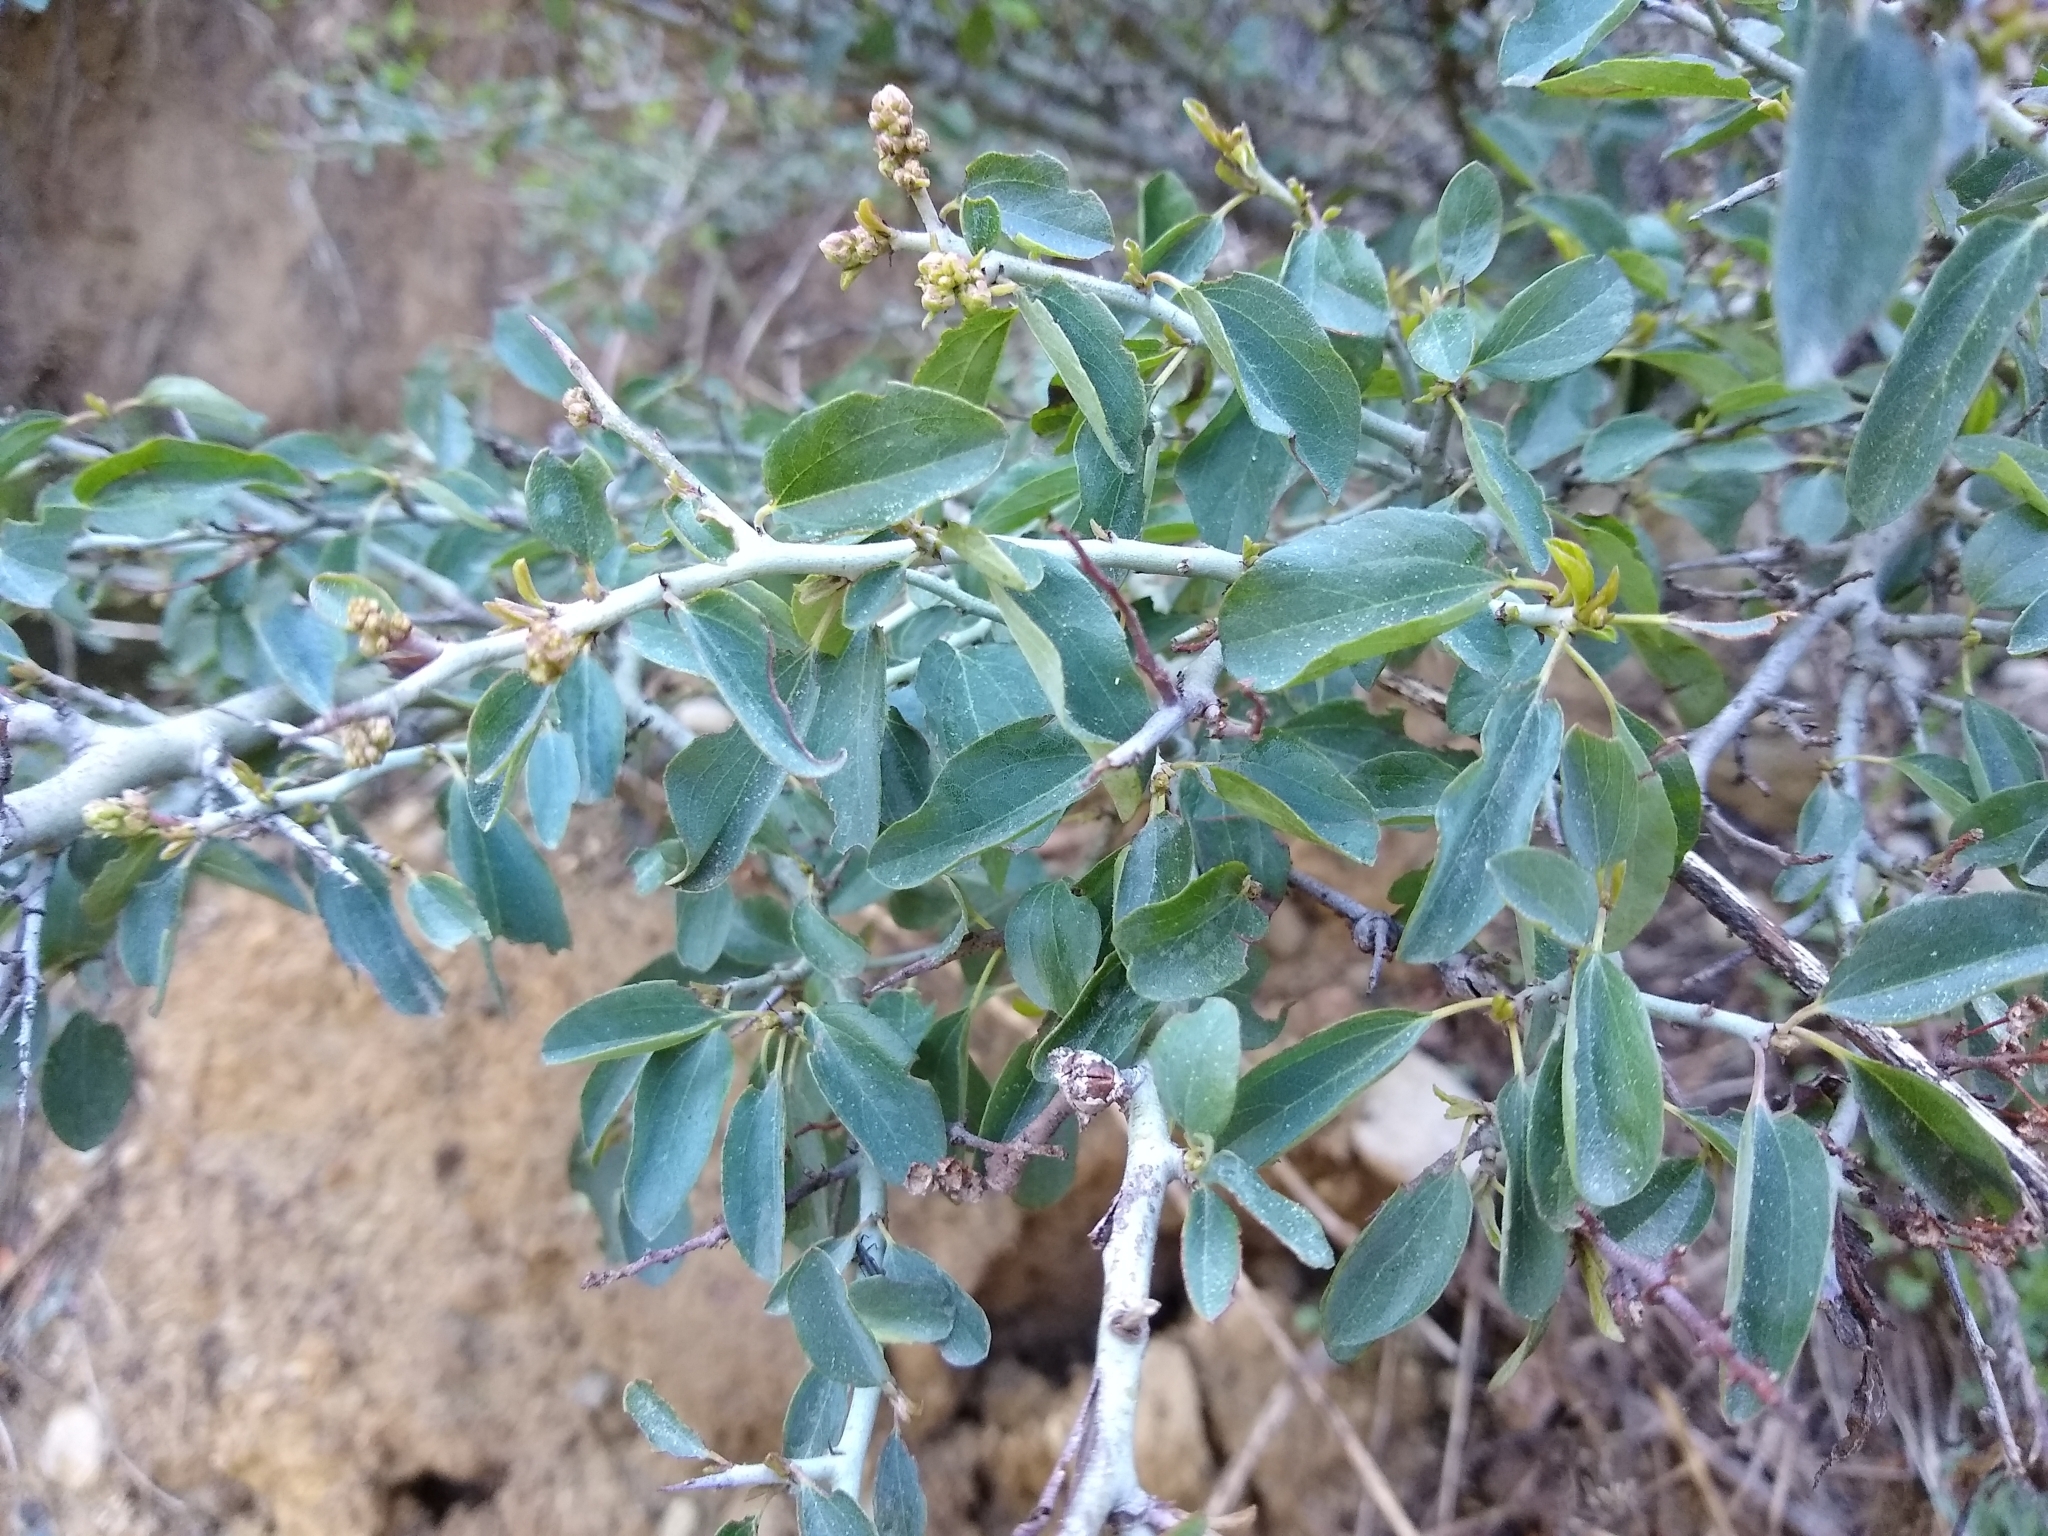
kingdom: Plantae
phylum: Tracheophyta
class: Magnoliopsida
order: Rosales
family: Rhamnaceae
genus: Ceanothus
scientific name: Ceanothus cordulatus
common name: Mountain whitethorn
